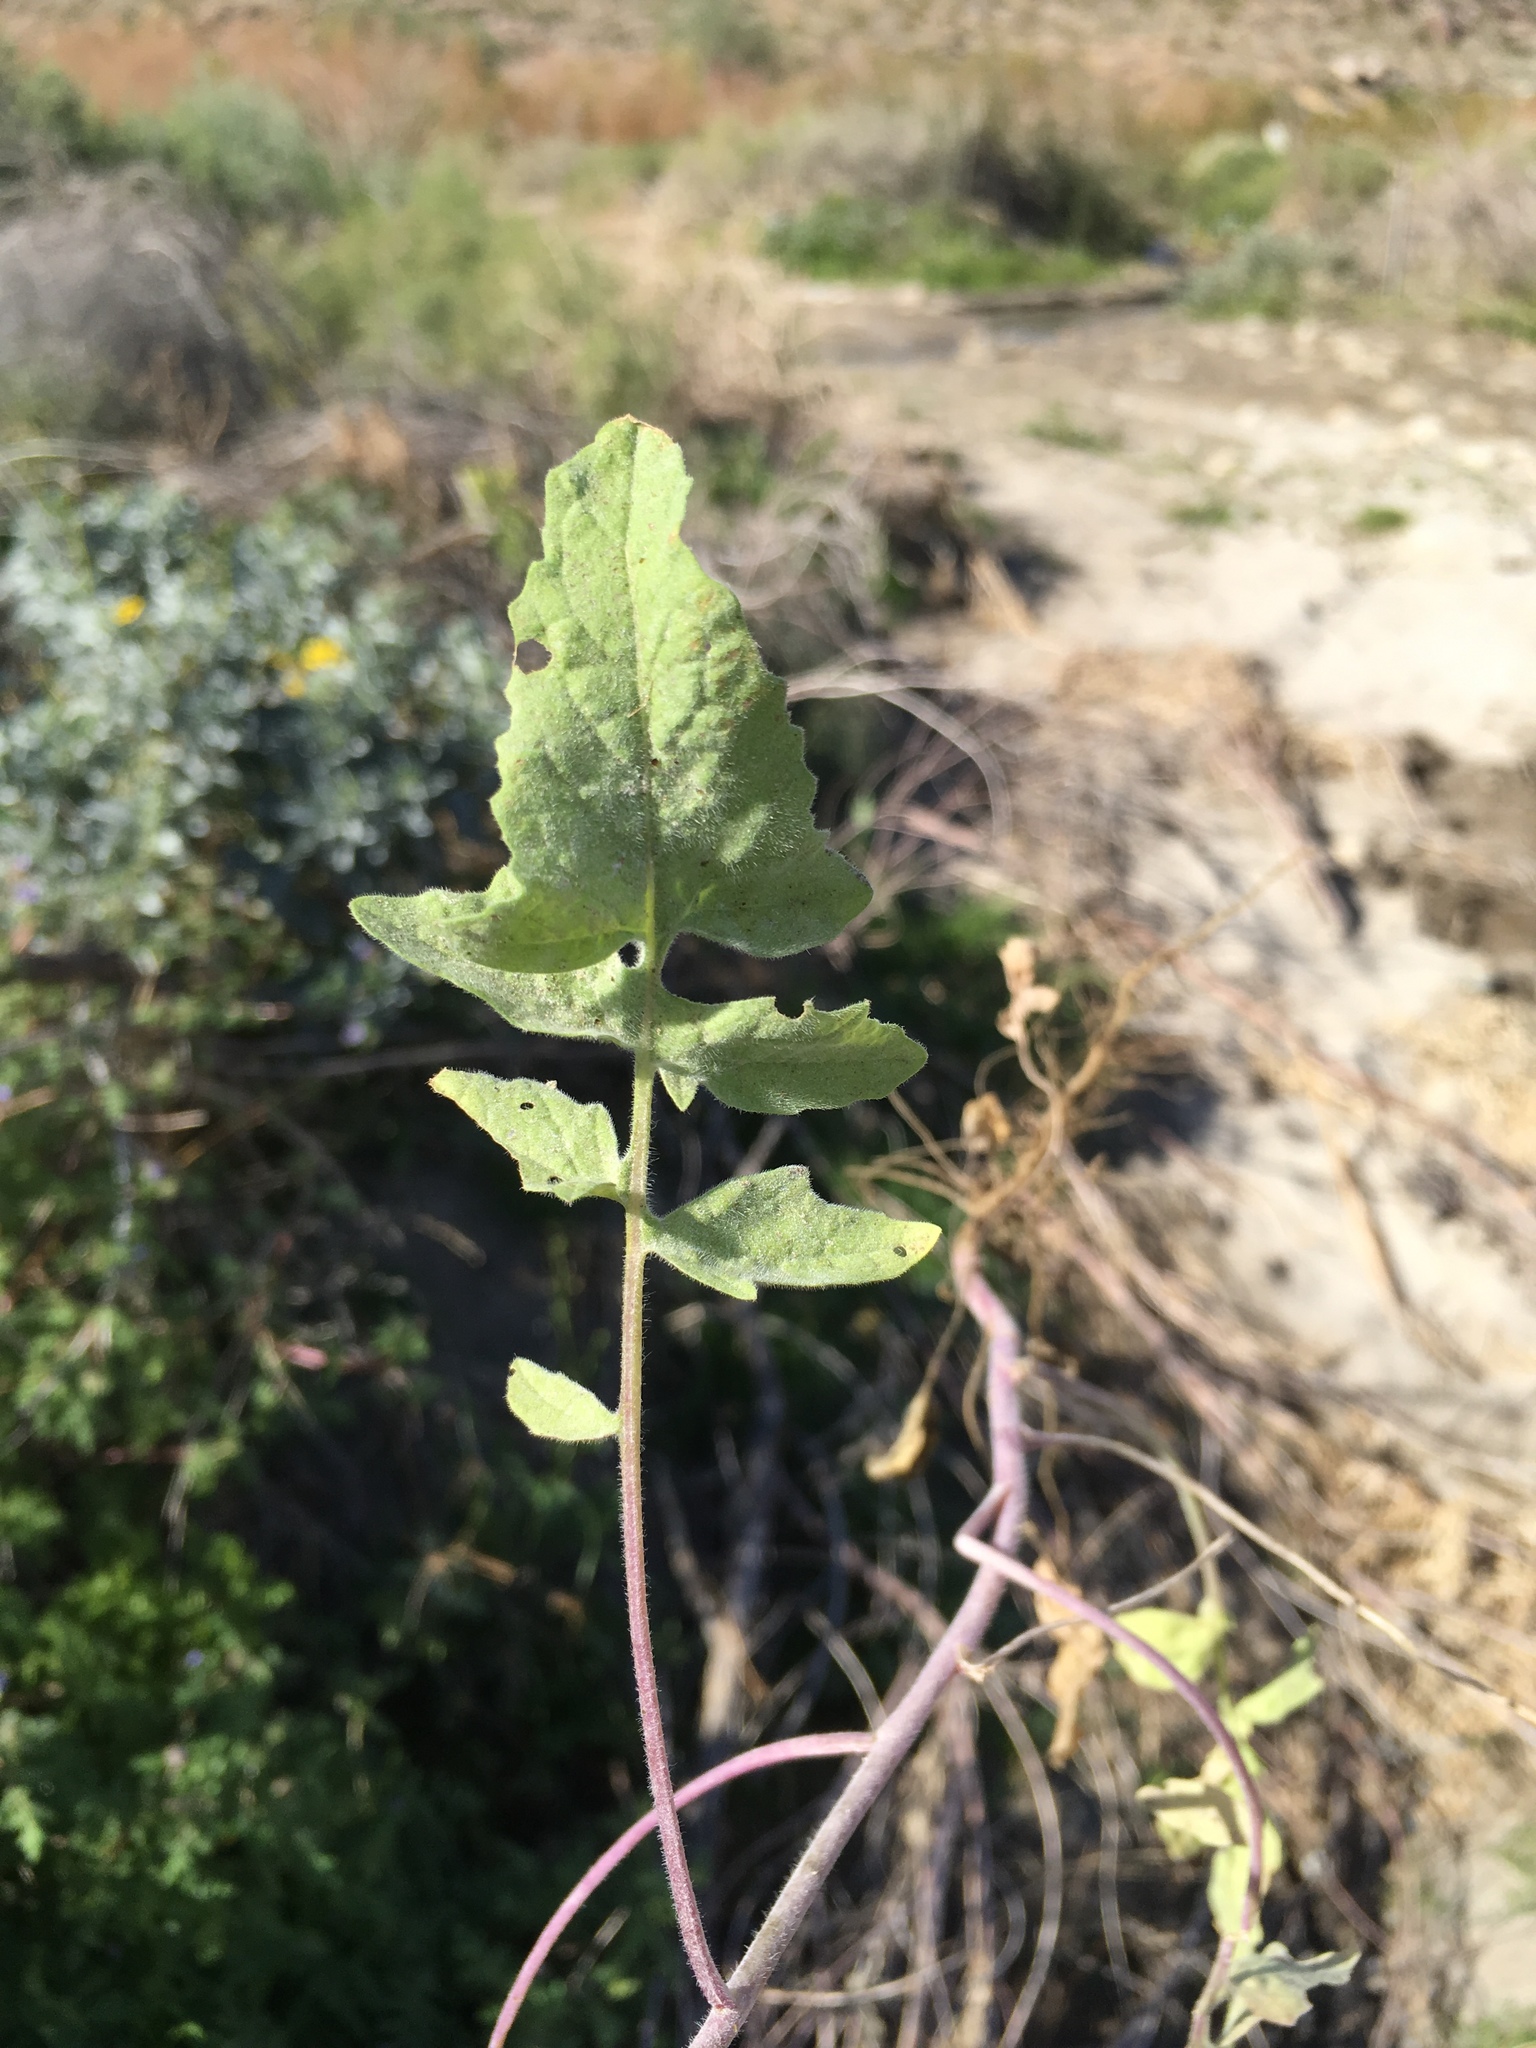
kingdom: Plantae
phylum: Tracheophyta
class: Magnoliopsida
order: Brassicales
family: Brassicaceae
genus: Sisymbrium
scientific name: Sisymbrium orientale
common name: Eastern rocket
